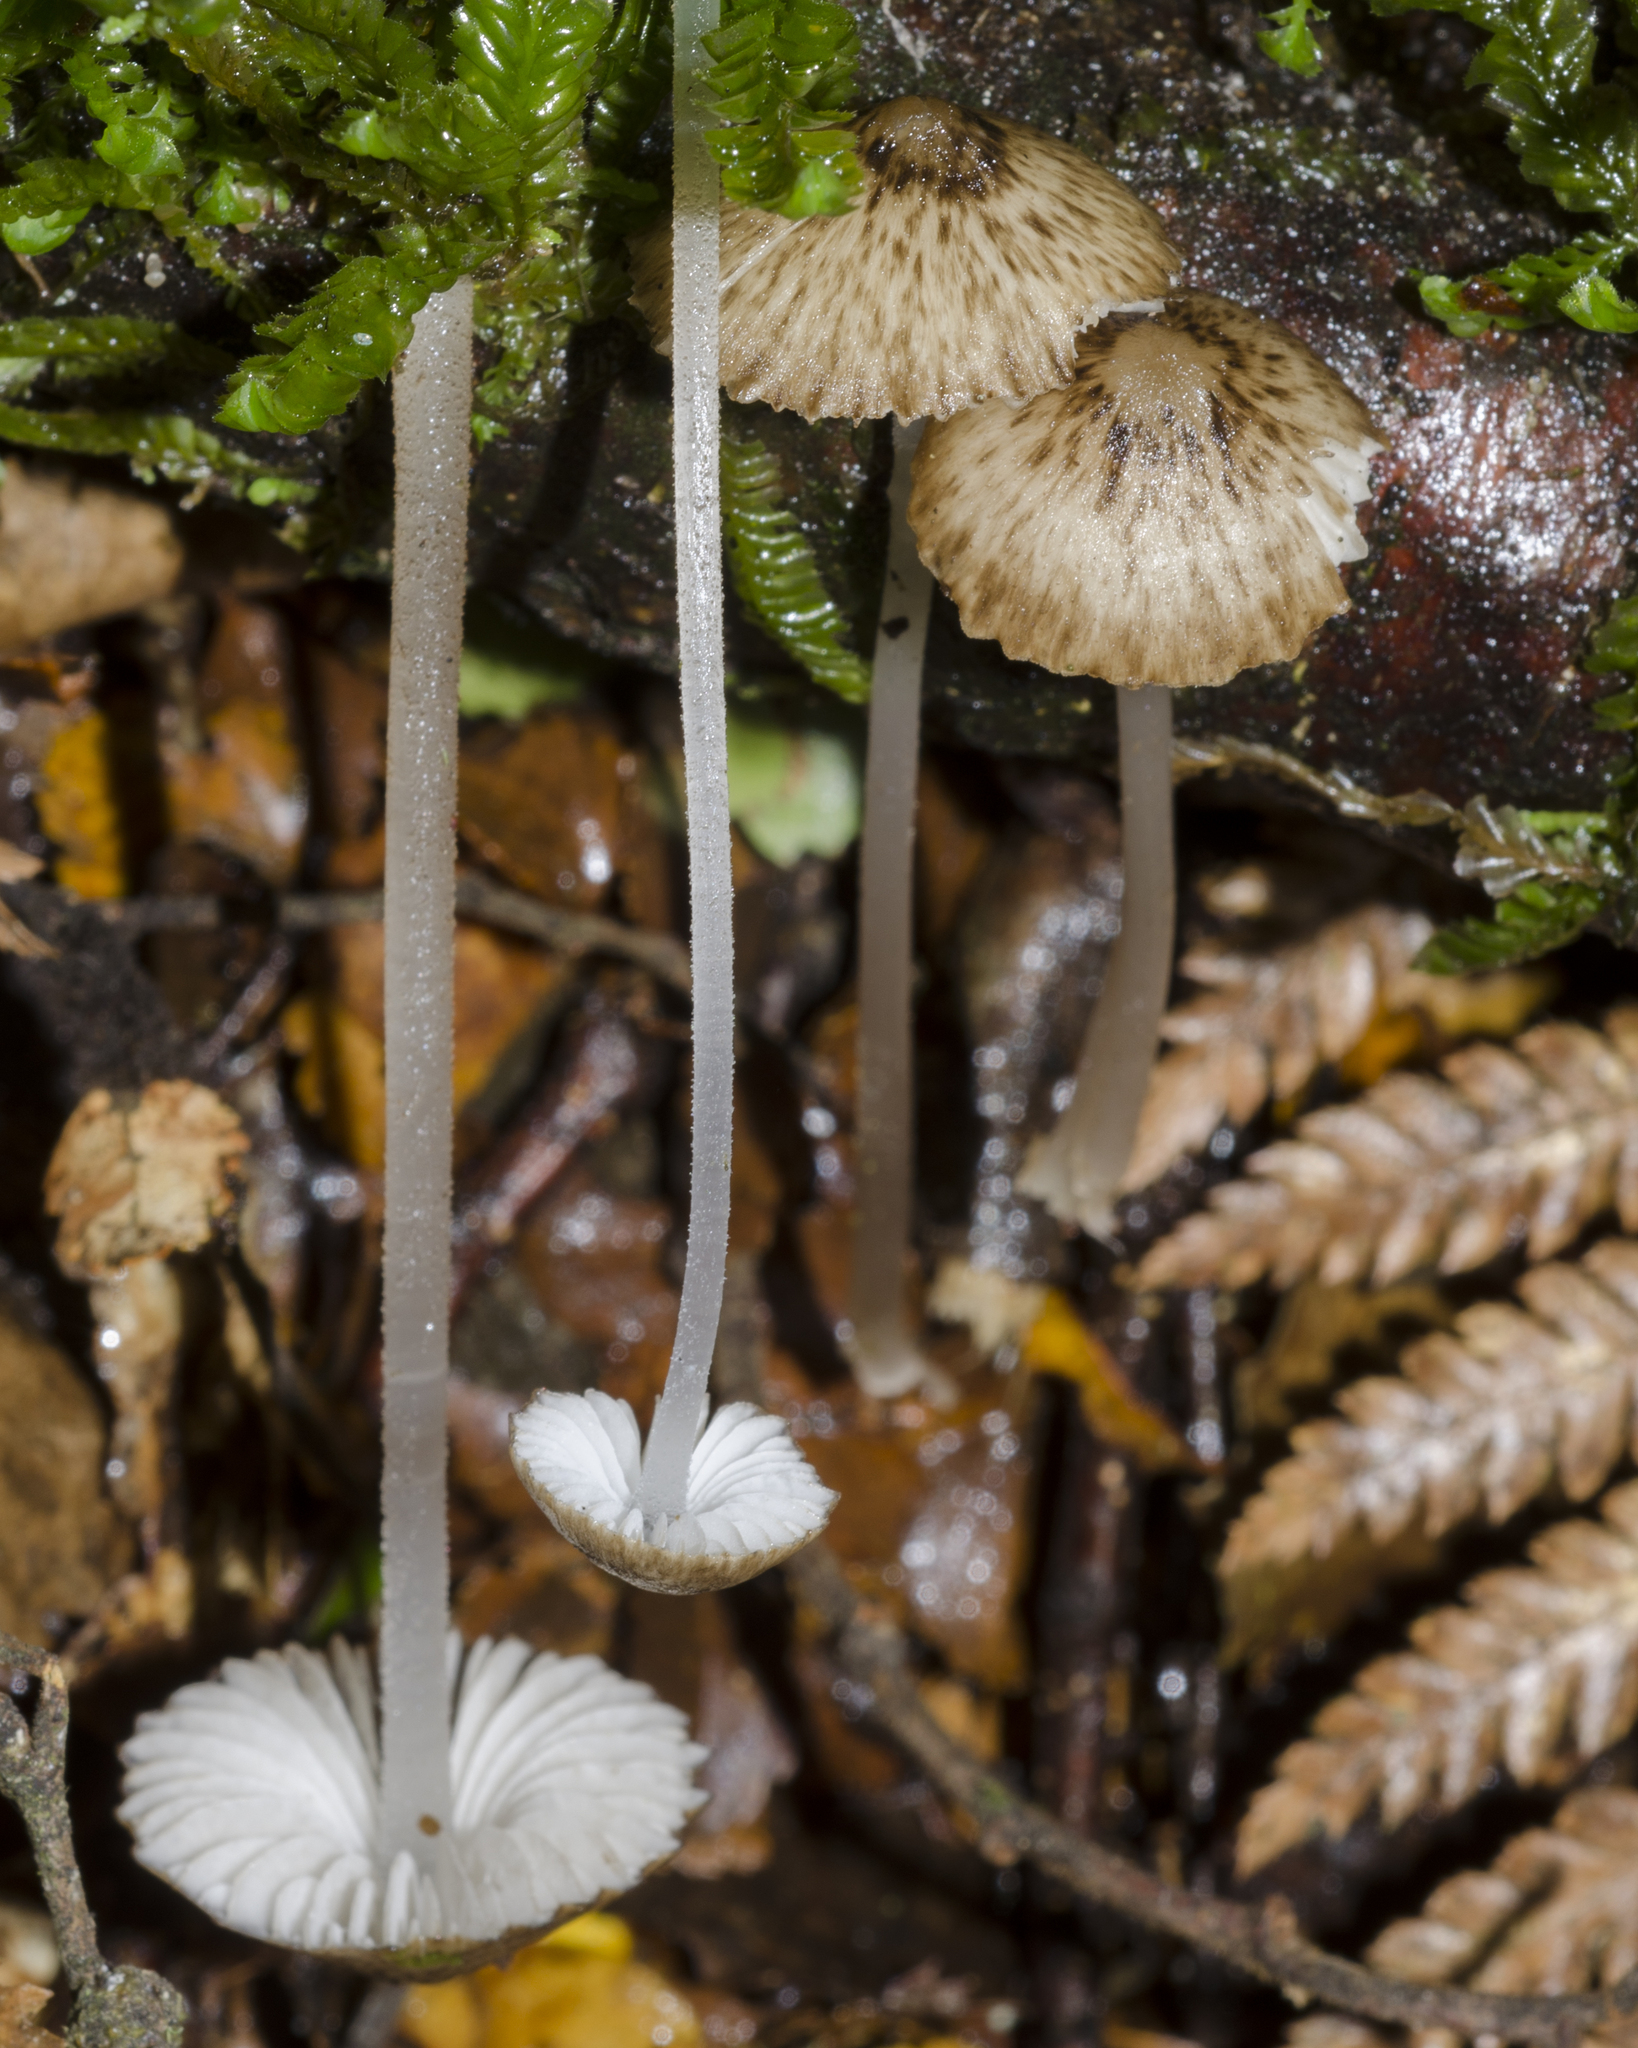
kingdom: Fungi
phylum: Basidiomycota
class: Agaricomycetes
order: Agaricales
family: Porotheleaceae
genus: Pseudohydropus
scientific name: Pseudohydropus parafunebris
